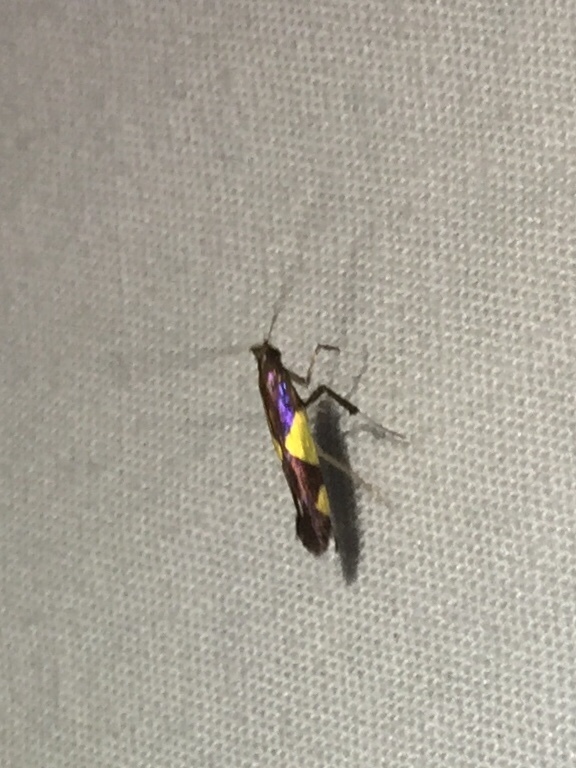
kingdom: Animalia
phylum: Arthropoda
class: Insecta
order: Lepidoptera
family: Gracillariidae
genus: Caloptilia
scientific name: Caloptilia bimaculatella
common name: Maple caloptilia moth
